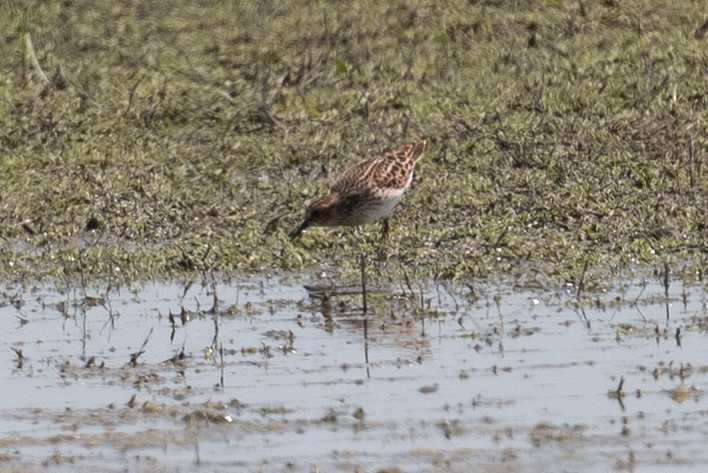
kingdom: Animalia
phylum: Chordata
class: Aves
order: Charadriiformes
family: Scolopacidae
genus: Calidris
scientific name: Calidris minutilla
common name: Least sandpiper
